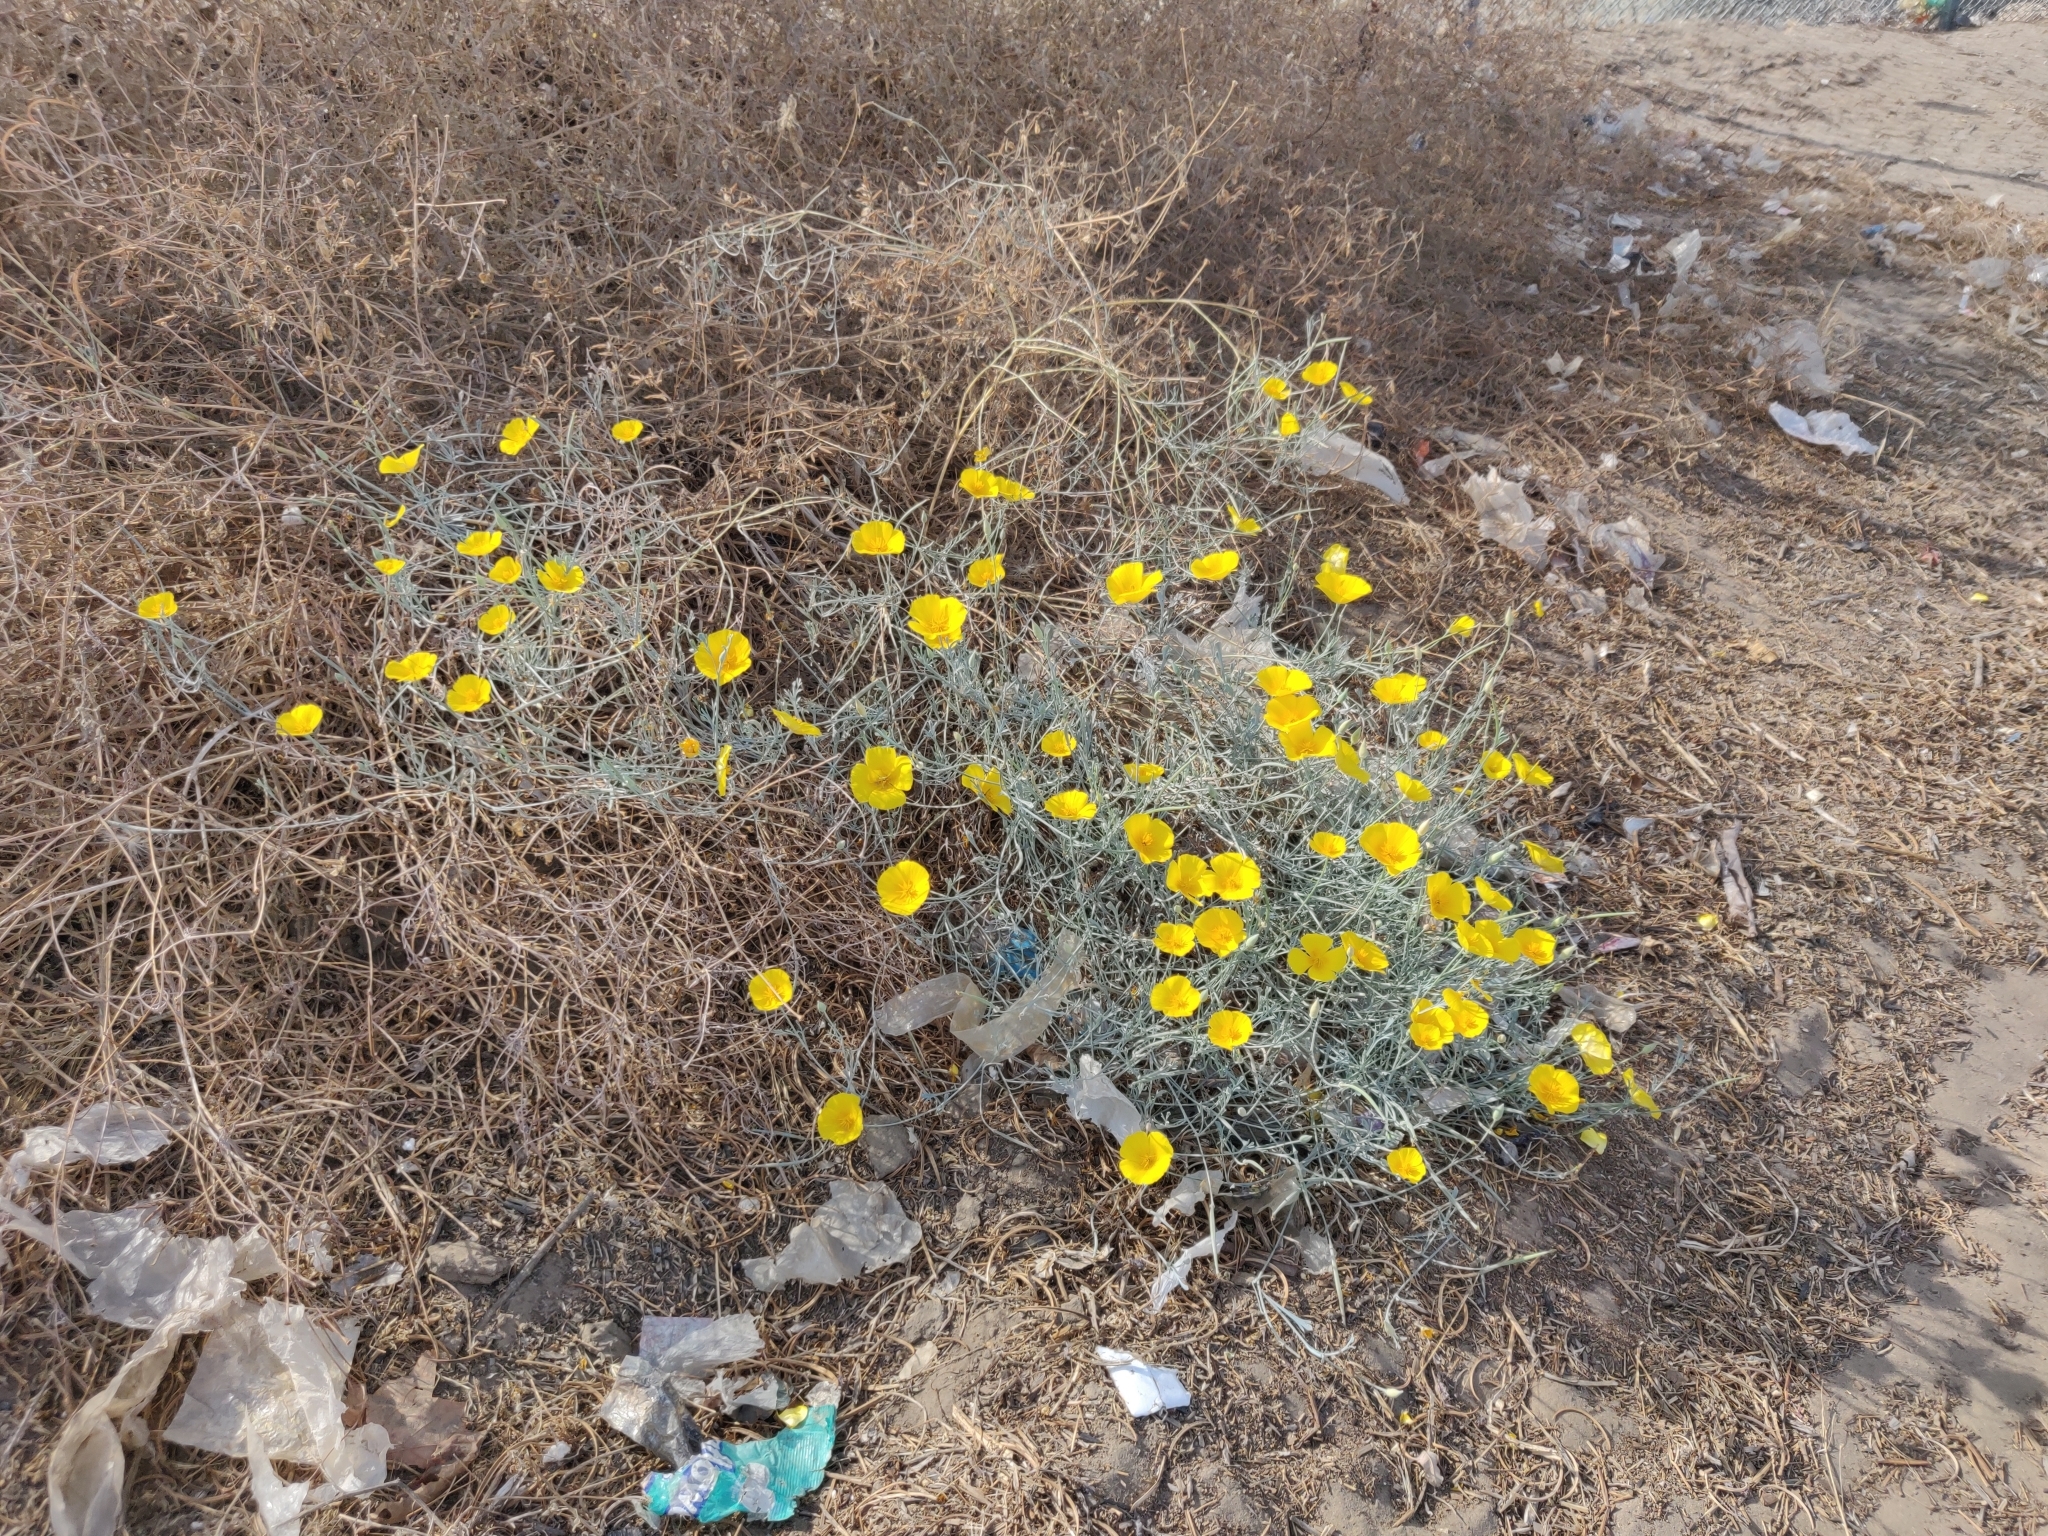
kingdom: Plantae
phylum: Tracheophyta
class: Magnoliopsida
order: Ranunculales
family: Papaveraceae
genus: Eschscholzia
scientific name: Eschscholzia californica
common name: California poppy
